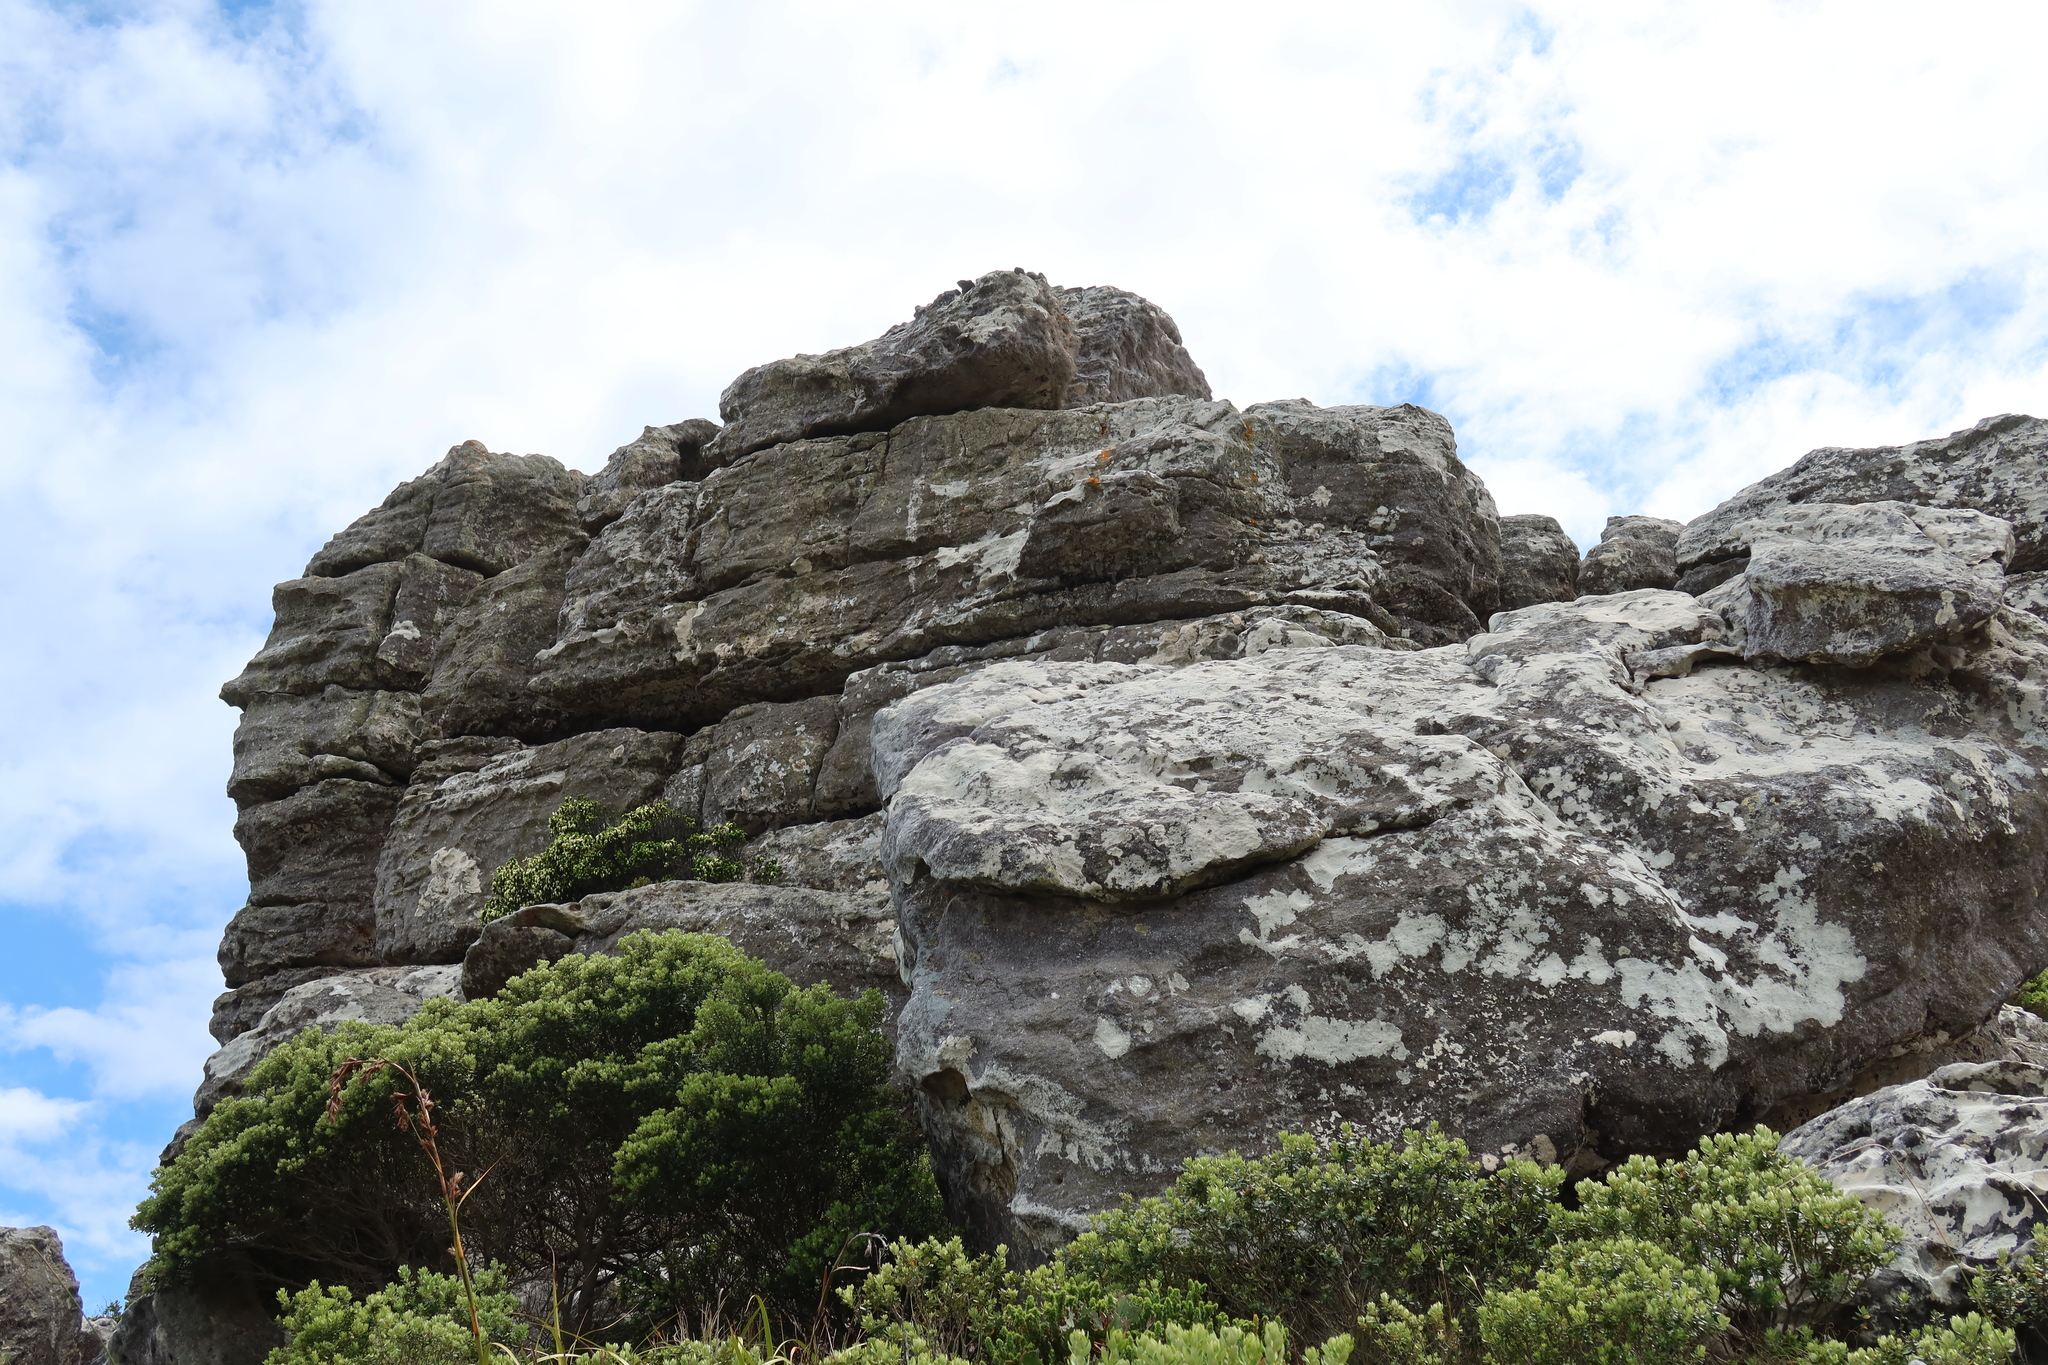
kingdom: Plantae
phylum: Tracheophyta
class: Magnoliopsida
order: Ericales
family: Ericaceae
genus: Erica
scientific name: Erica halicacaba
